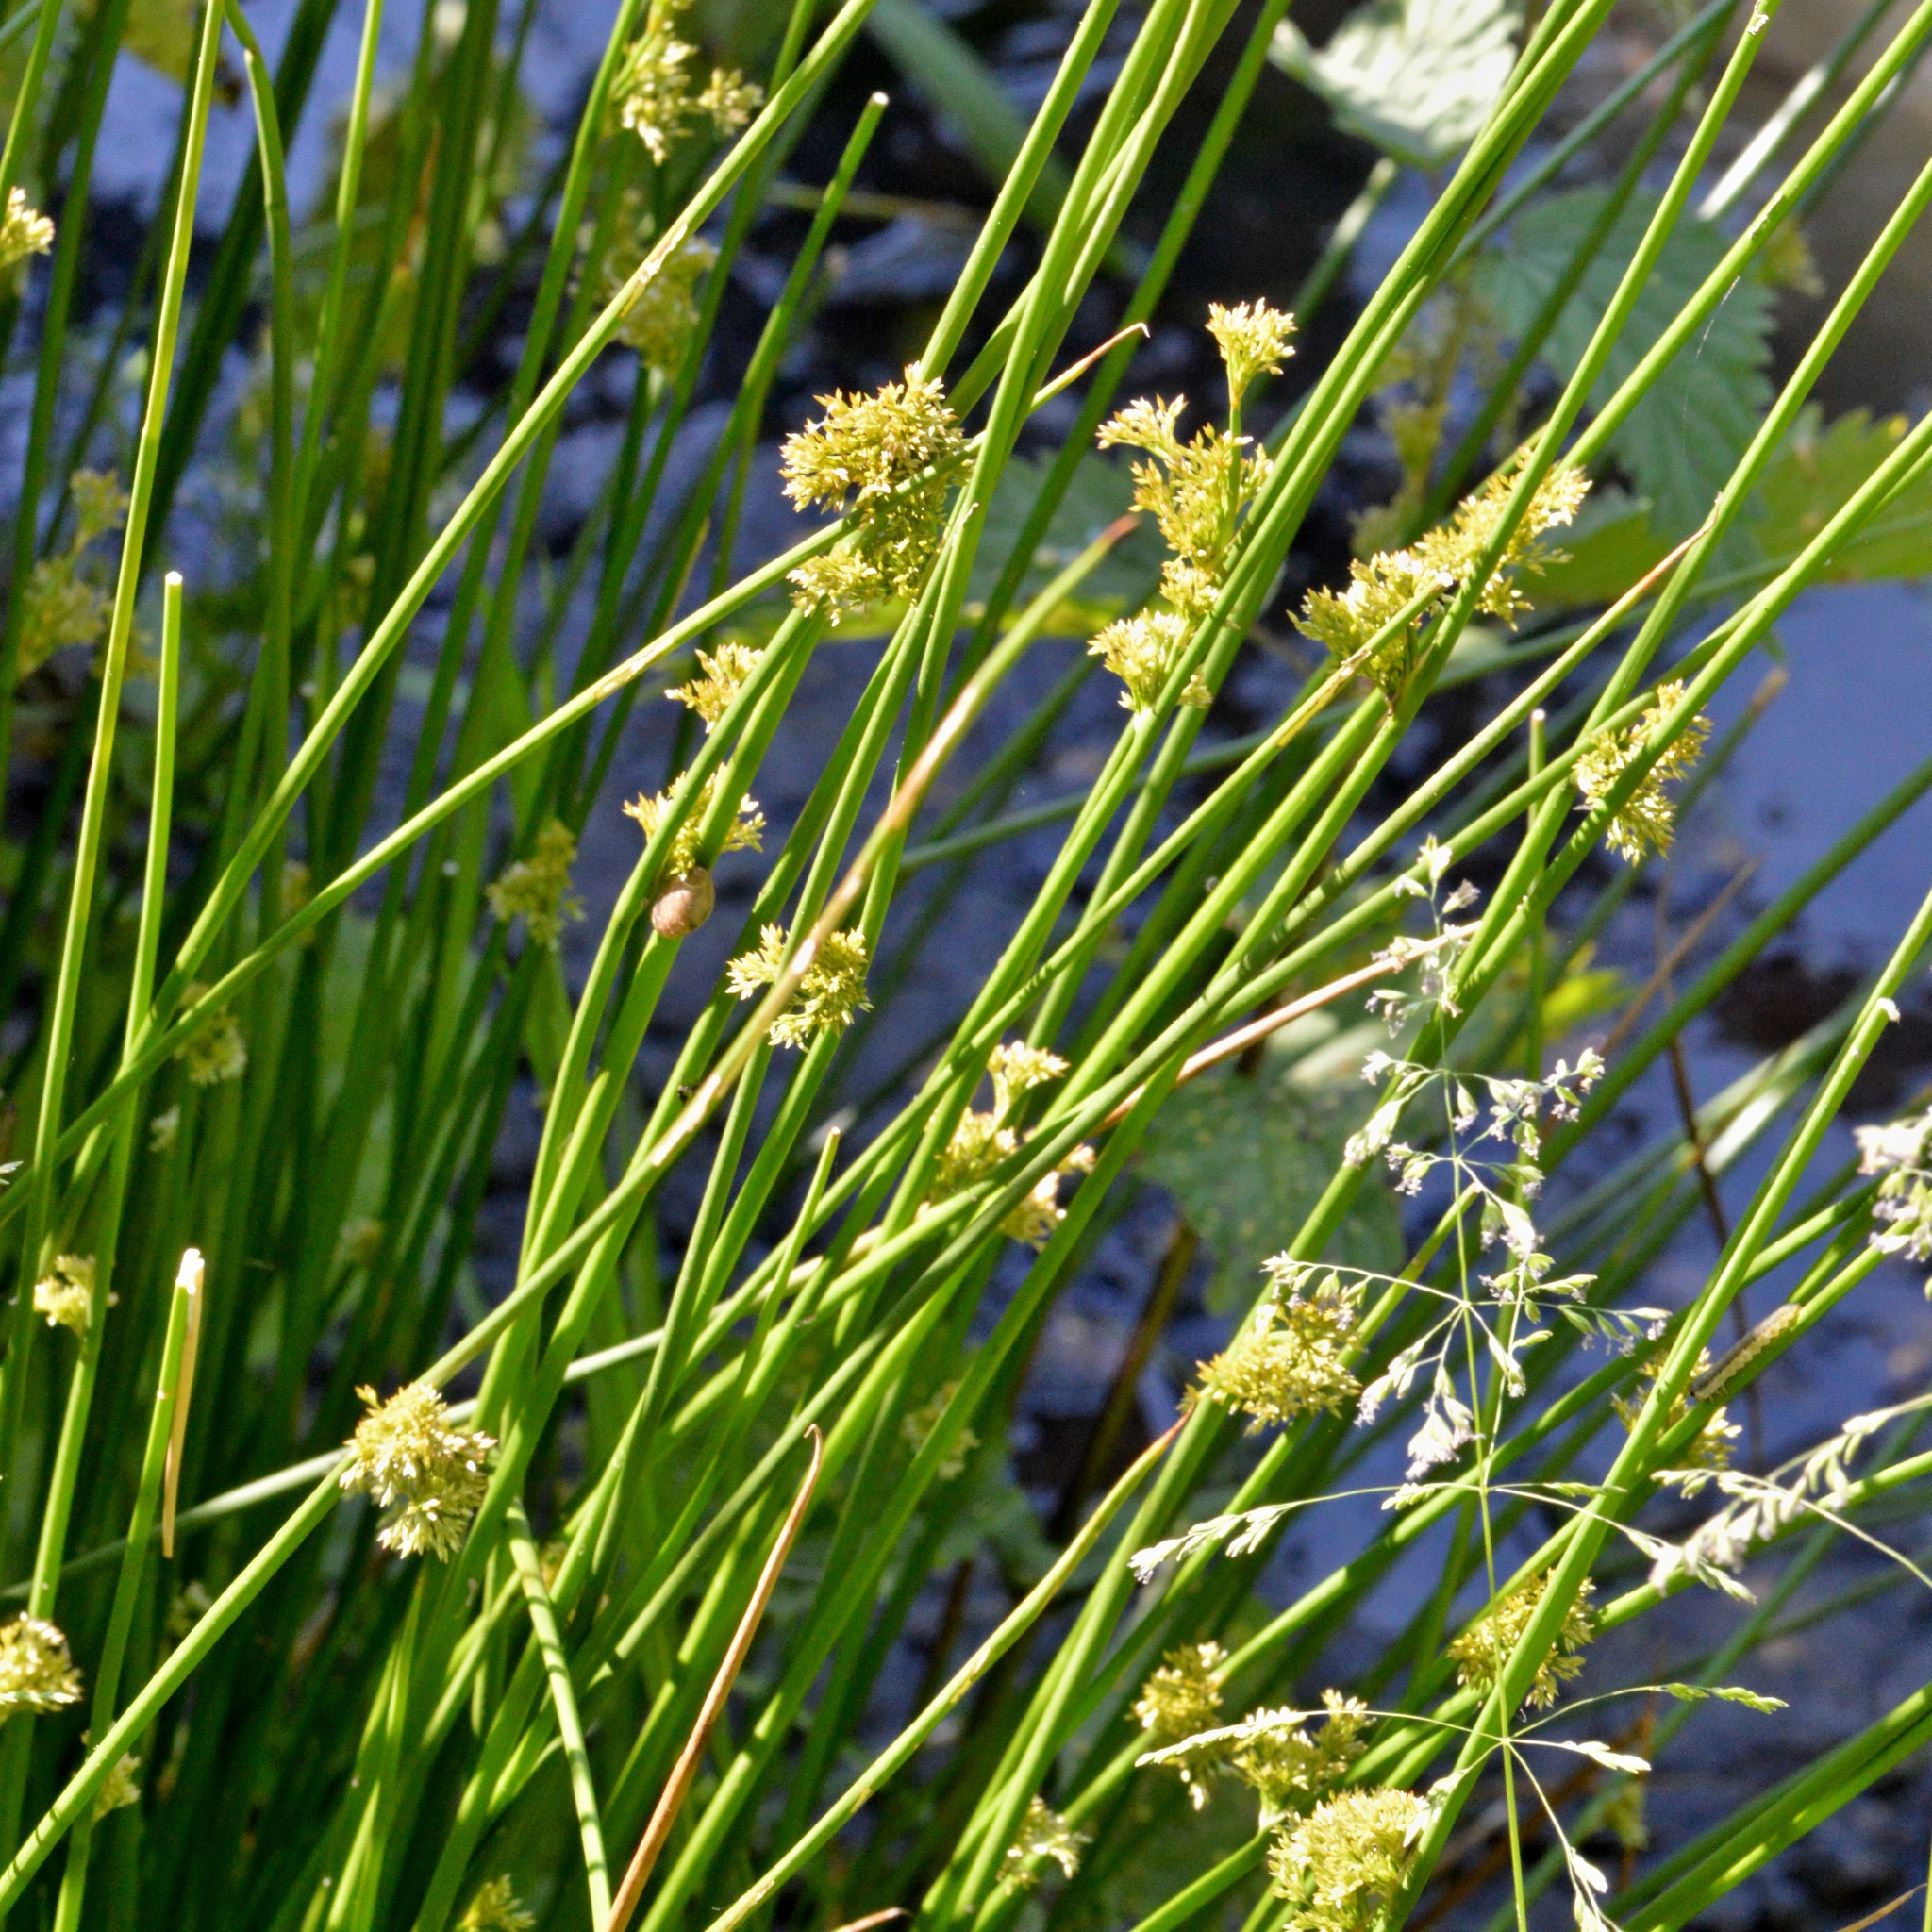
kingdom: Plantae
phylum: Tracheophyta
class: Liliopsida
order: Poales
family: Juncaceae
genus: Juncus
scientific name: Juncus effusus
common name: Soft rush
